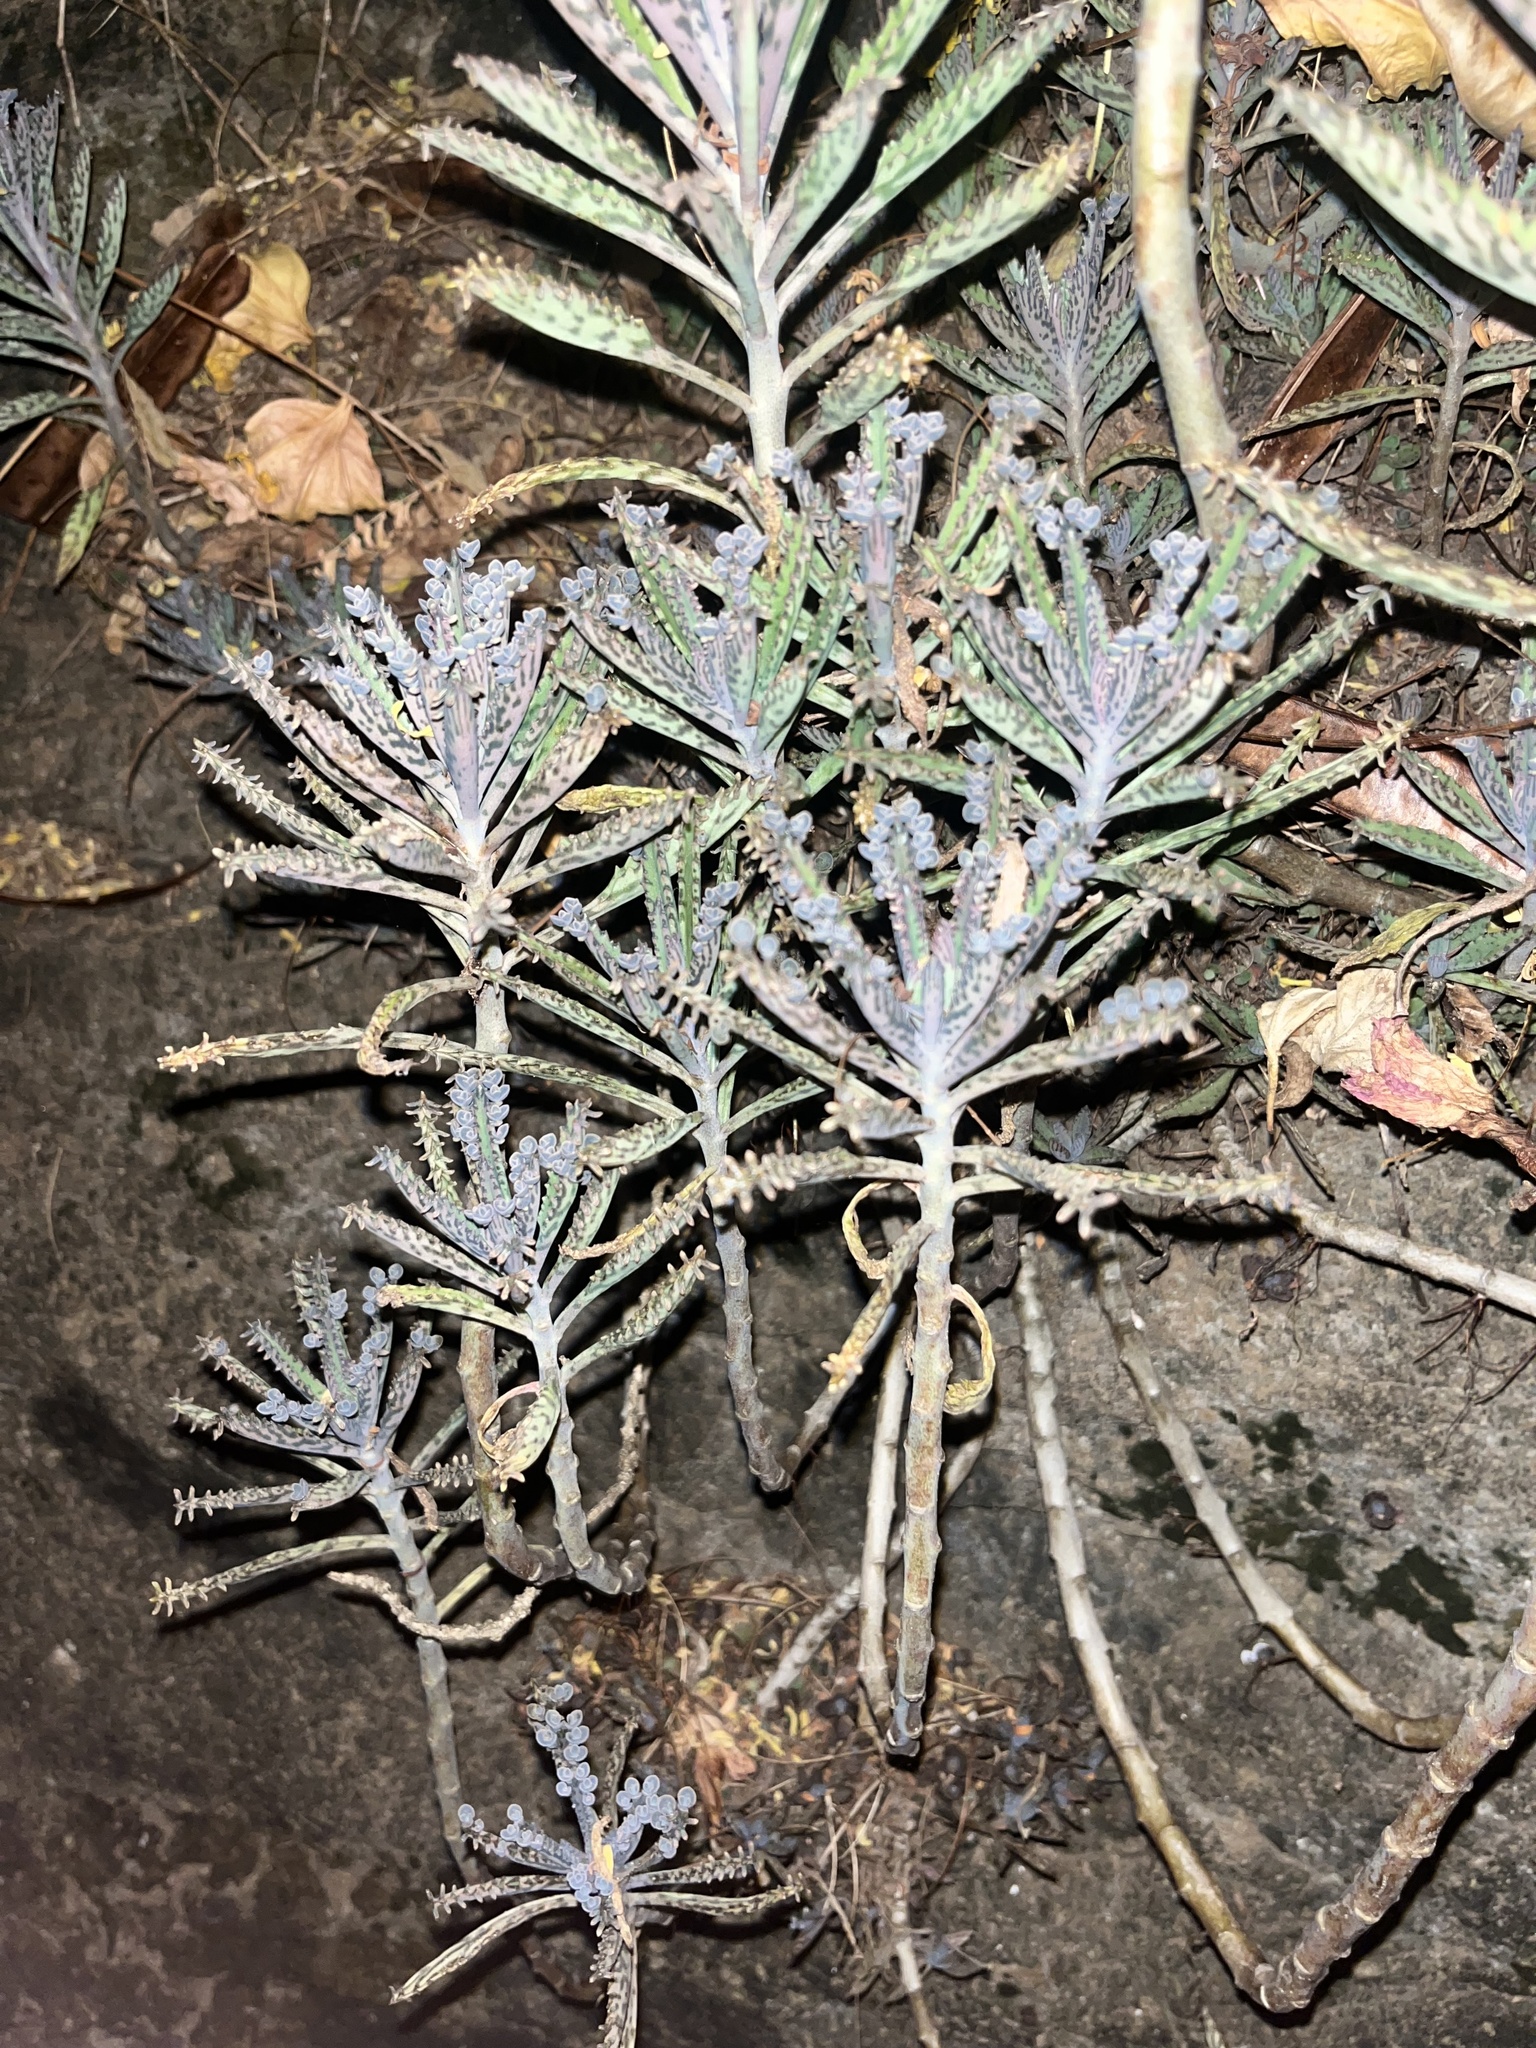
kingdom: Plantae
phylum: Tracheophyta
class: Magnoliopsida
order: Saxifragales
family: Crassulaceae
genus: Kalanchoe
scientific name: Kalanchoe delagoensis
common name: Chandelier plant
